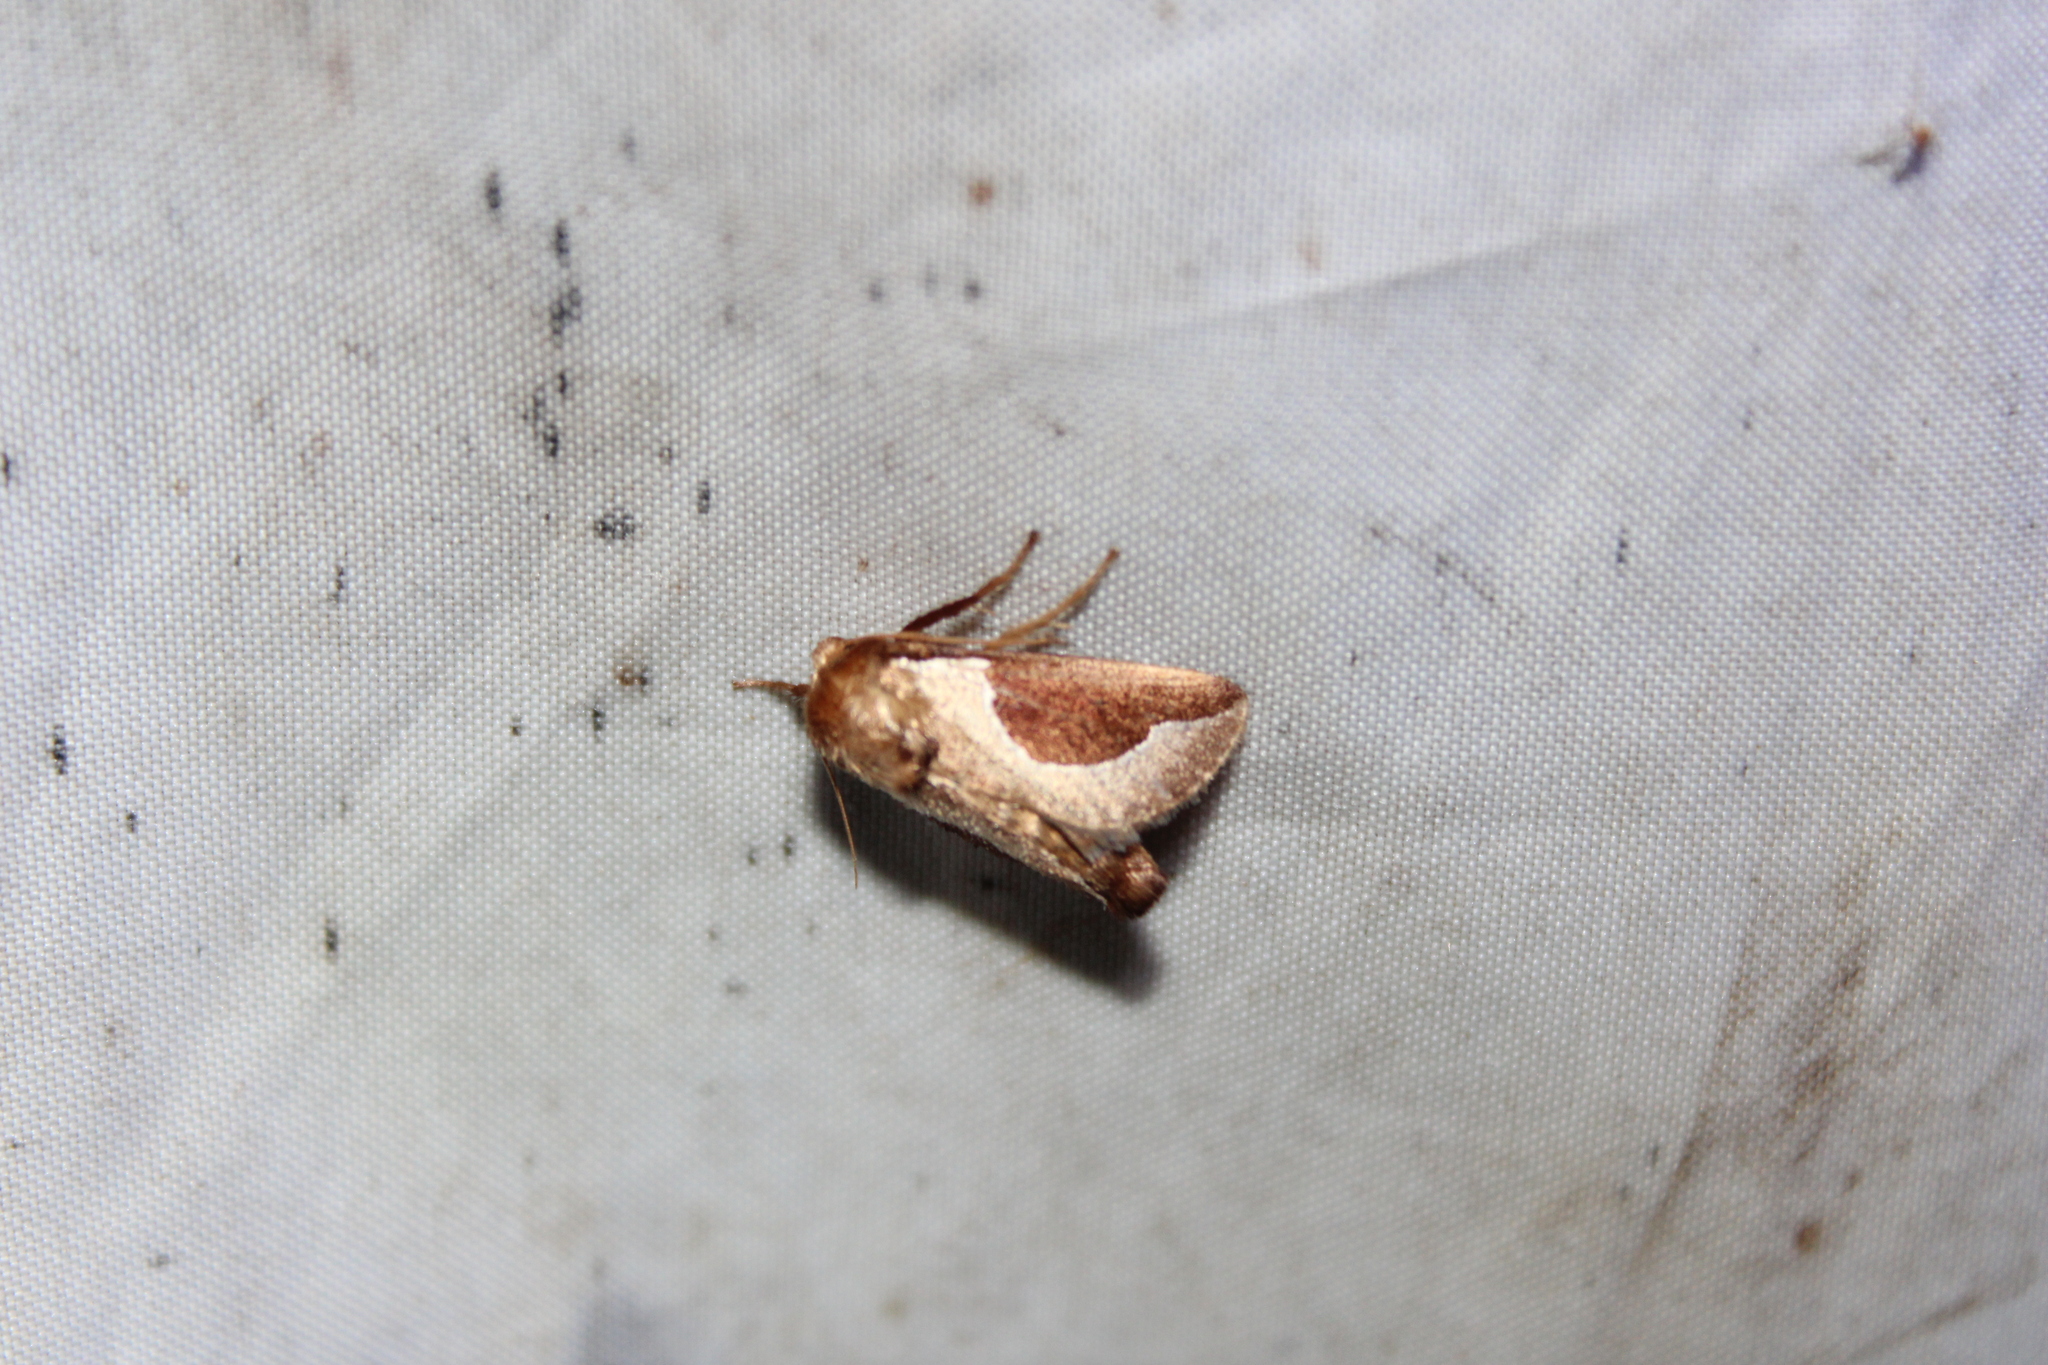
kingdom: Animalia
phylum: Arthropoda
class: Insecta
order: Lepidoptera
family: Limacodidae
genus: Prolimacodes
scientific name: Prolimacodes badia
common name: Skiff moth
